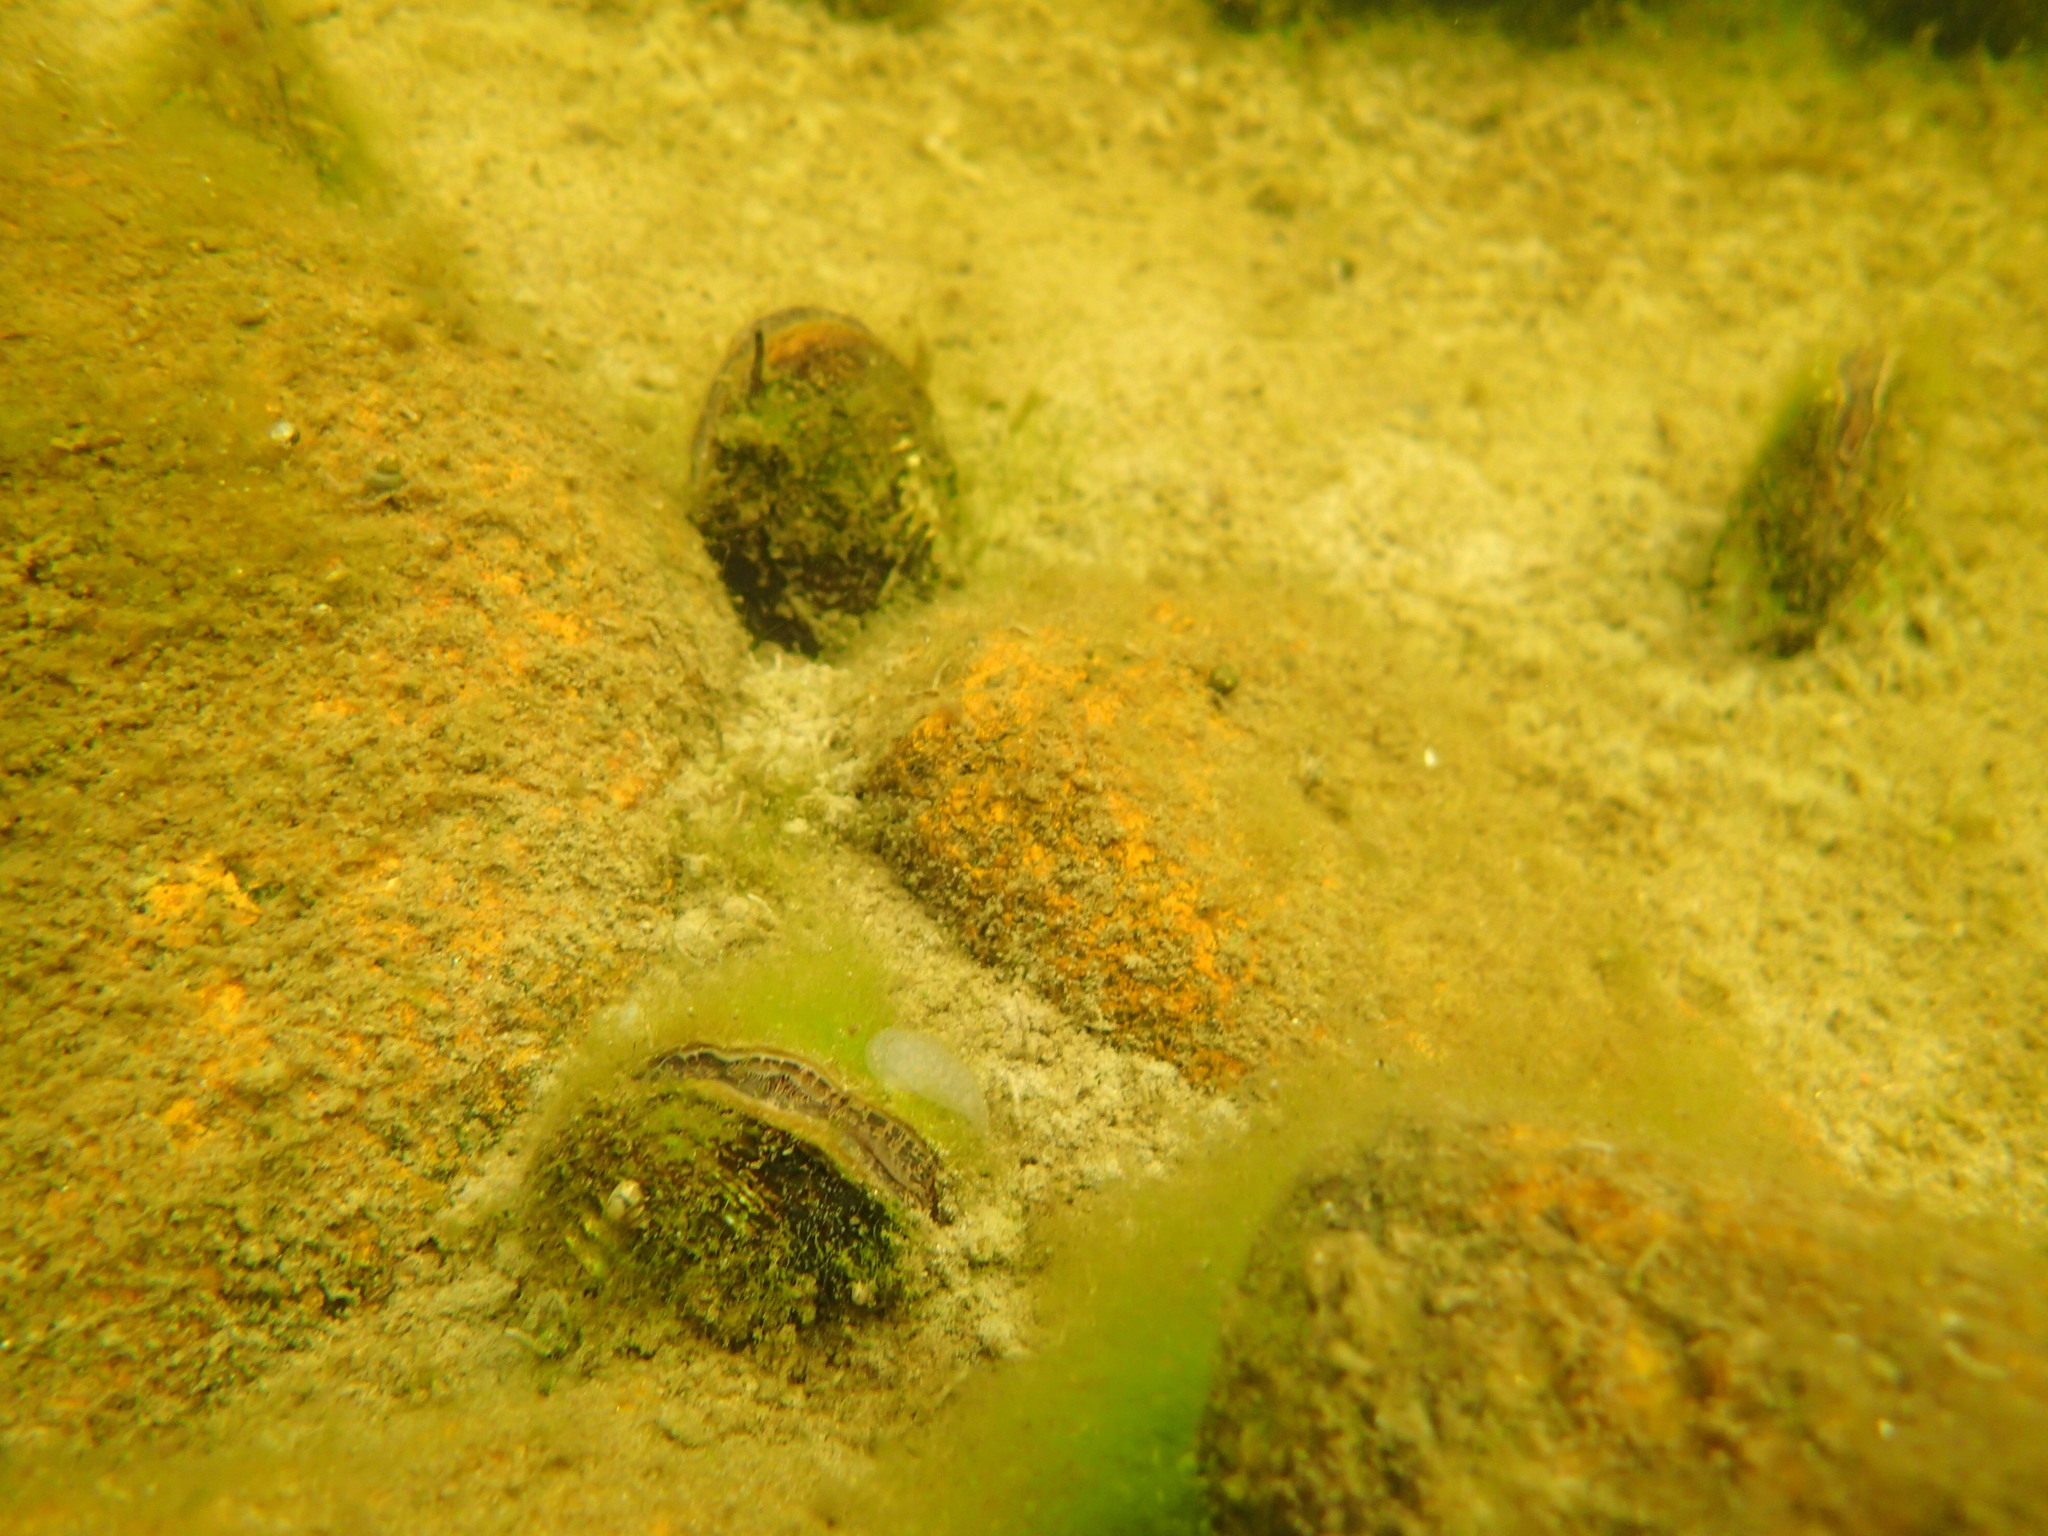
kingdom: Animalia
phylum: Mollusca
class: Bivalvia
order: Unionida
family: Unionidae
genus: Lampsilis
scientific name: Lampsilis siliquoidea
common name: Fatmucket
